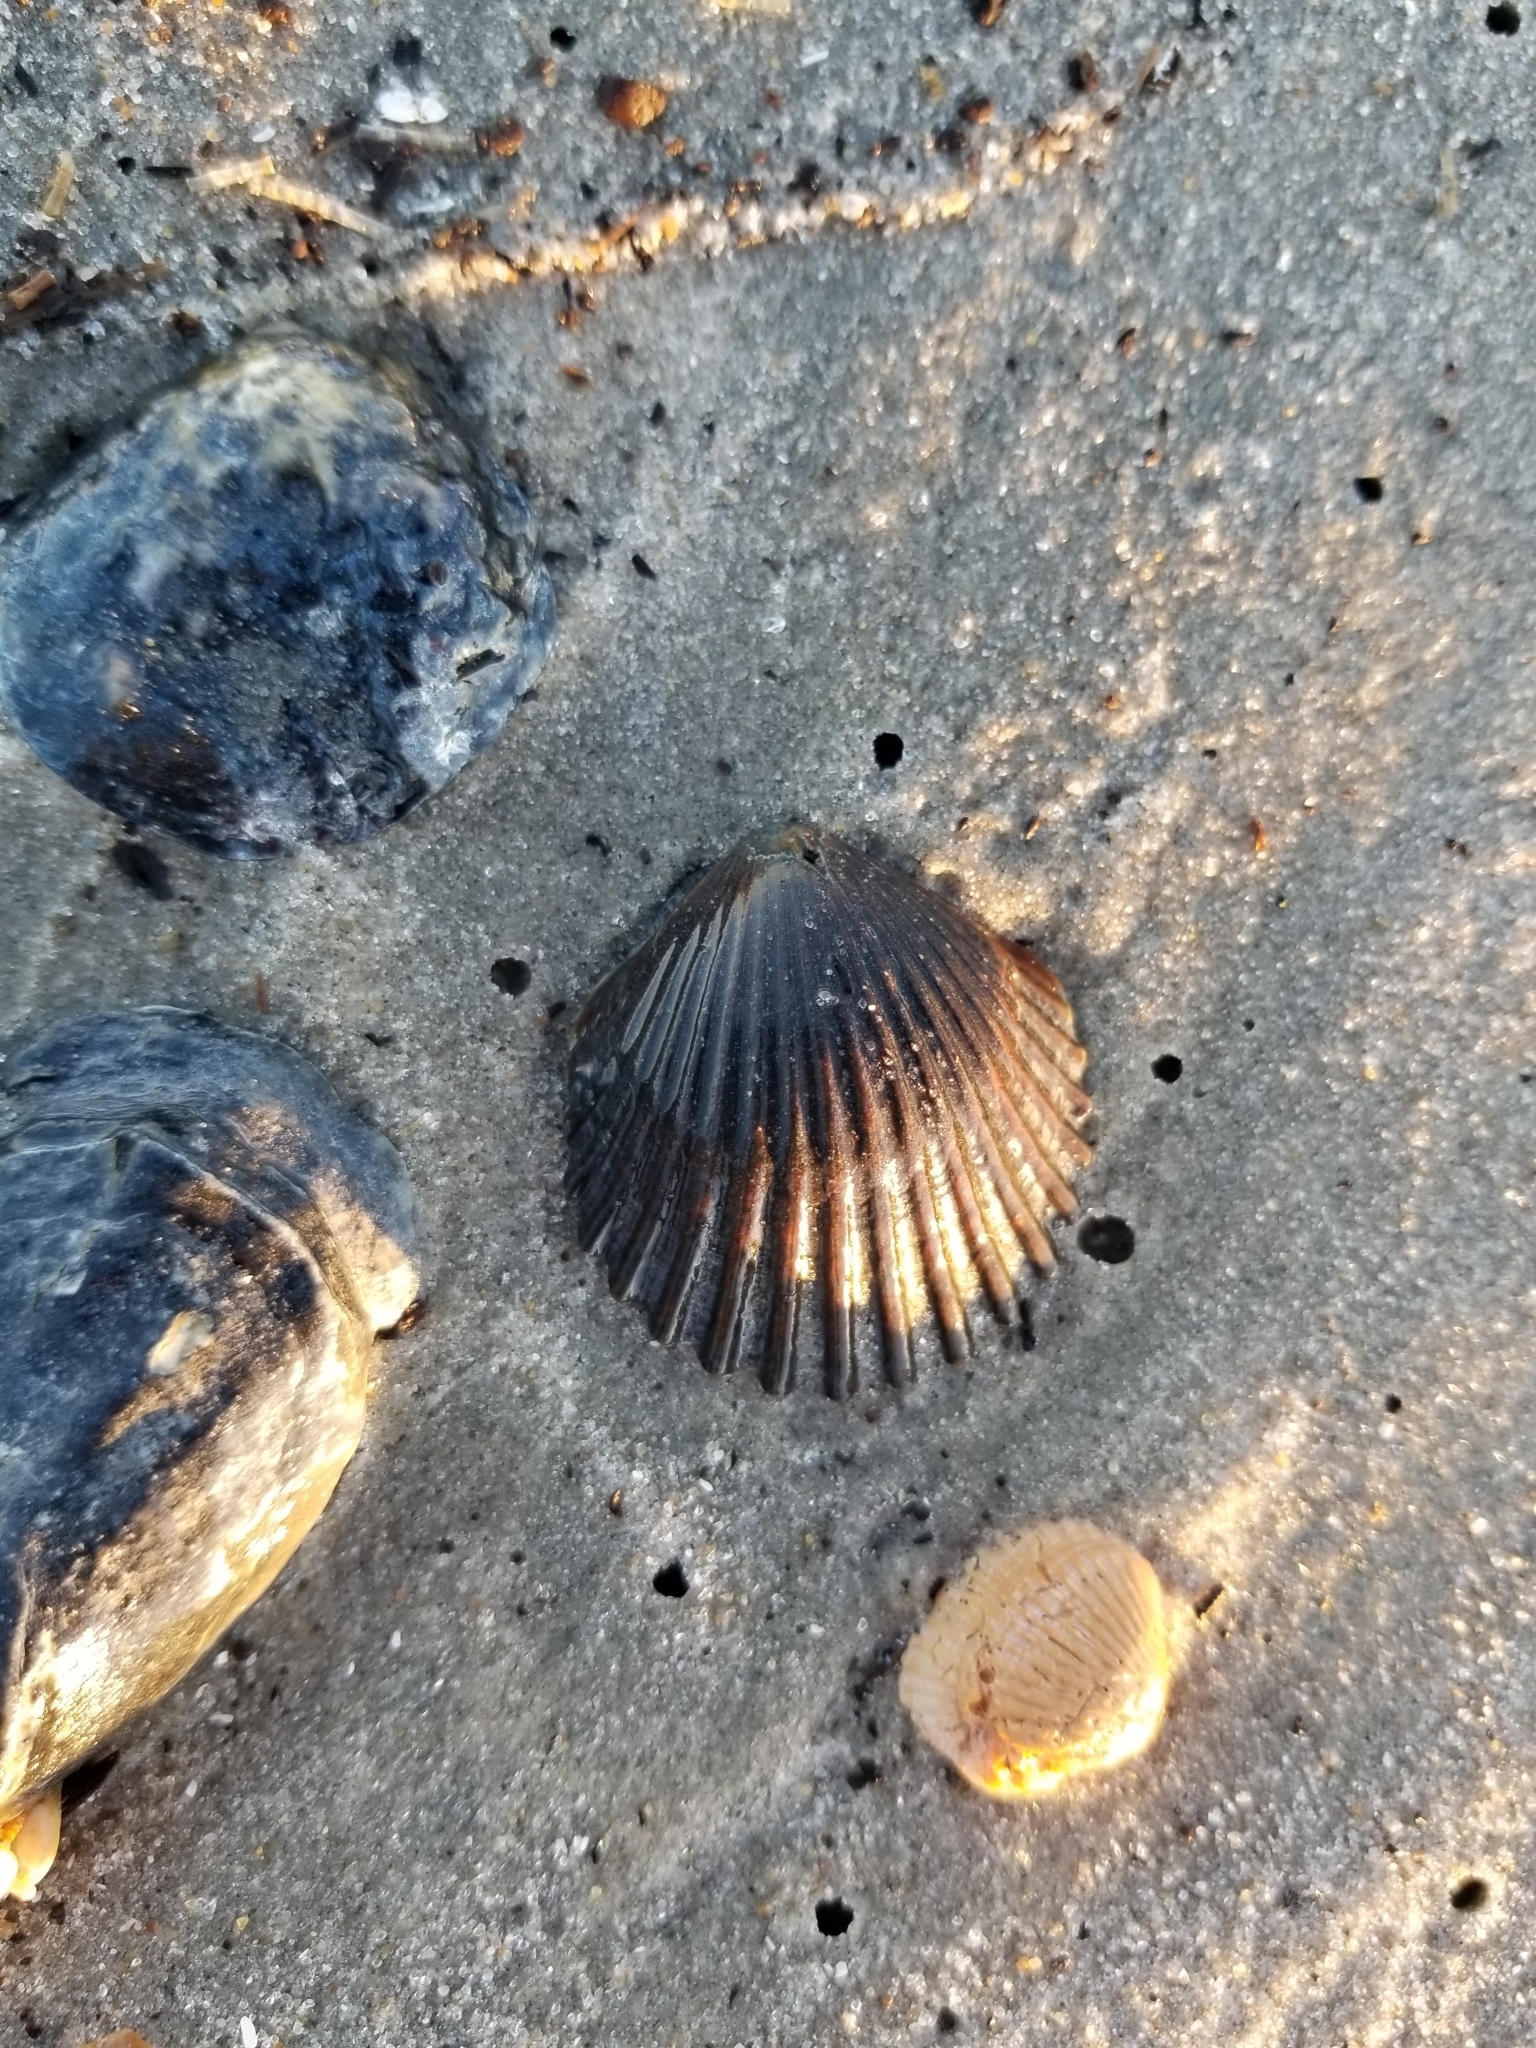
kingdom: Animalia
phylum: Mollusca
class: Bivalvia
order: Pectinida
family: Pectinidae
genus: Argopecten
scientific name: Argopecten irradians
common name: Atlantic bay scallop
